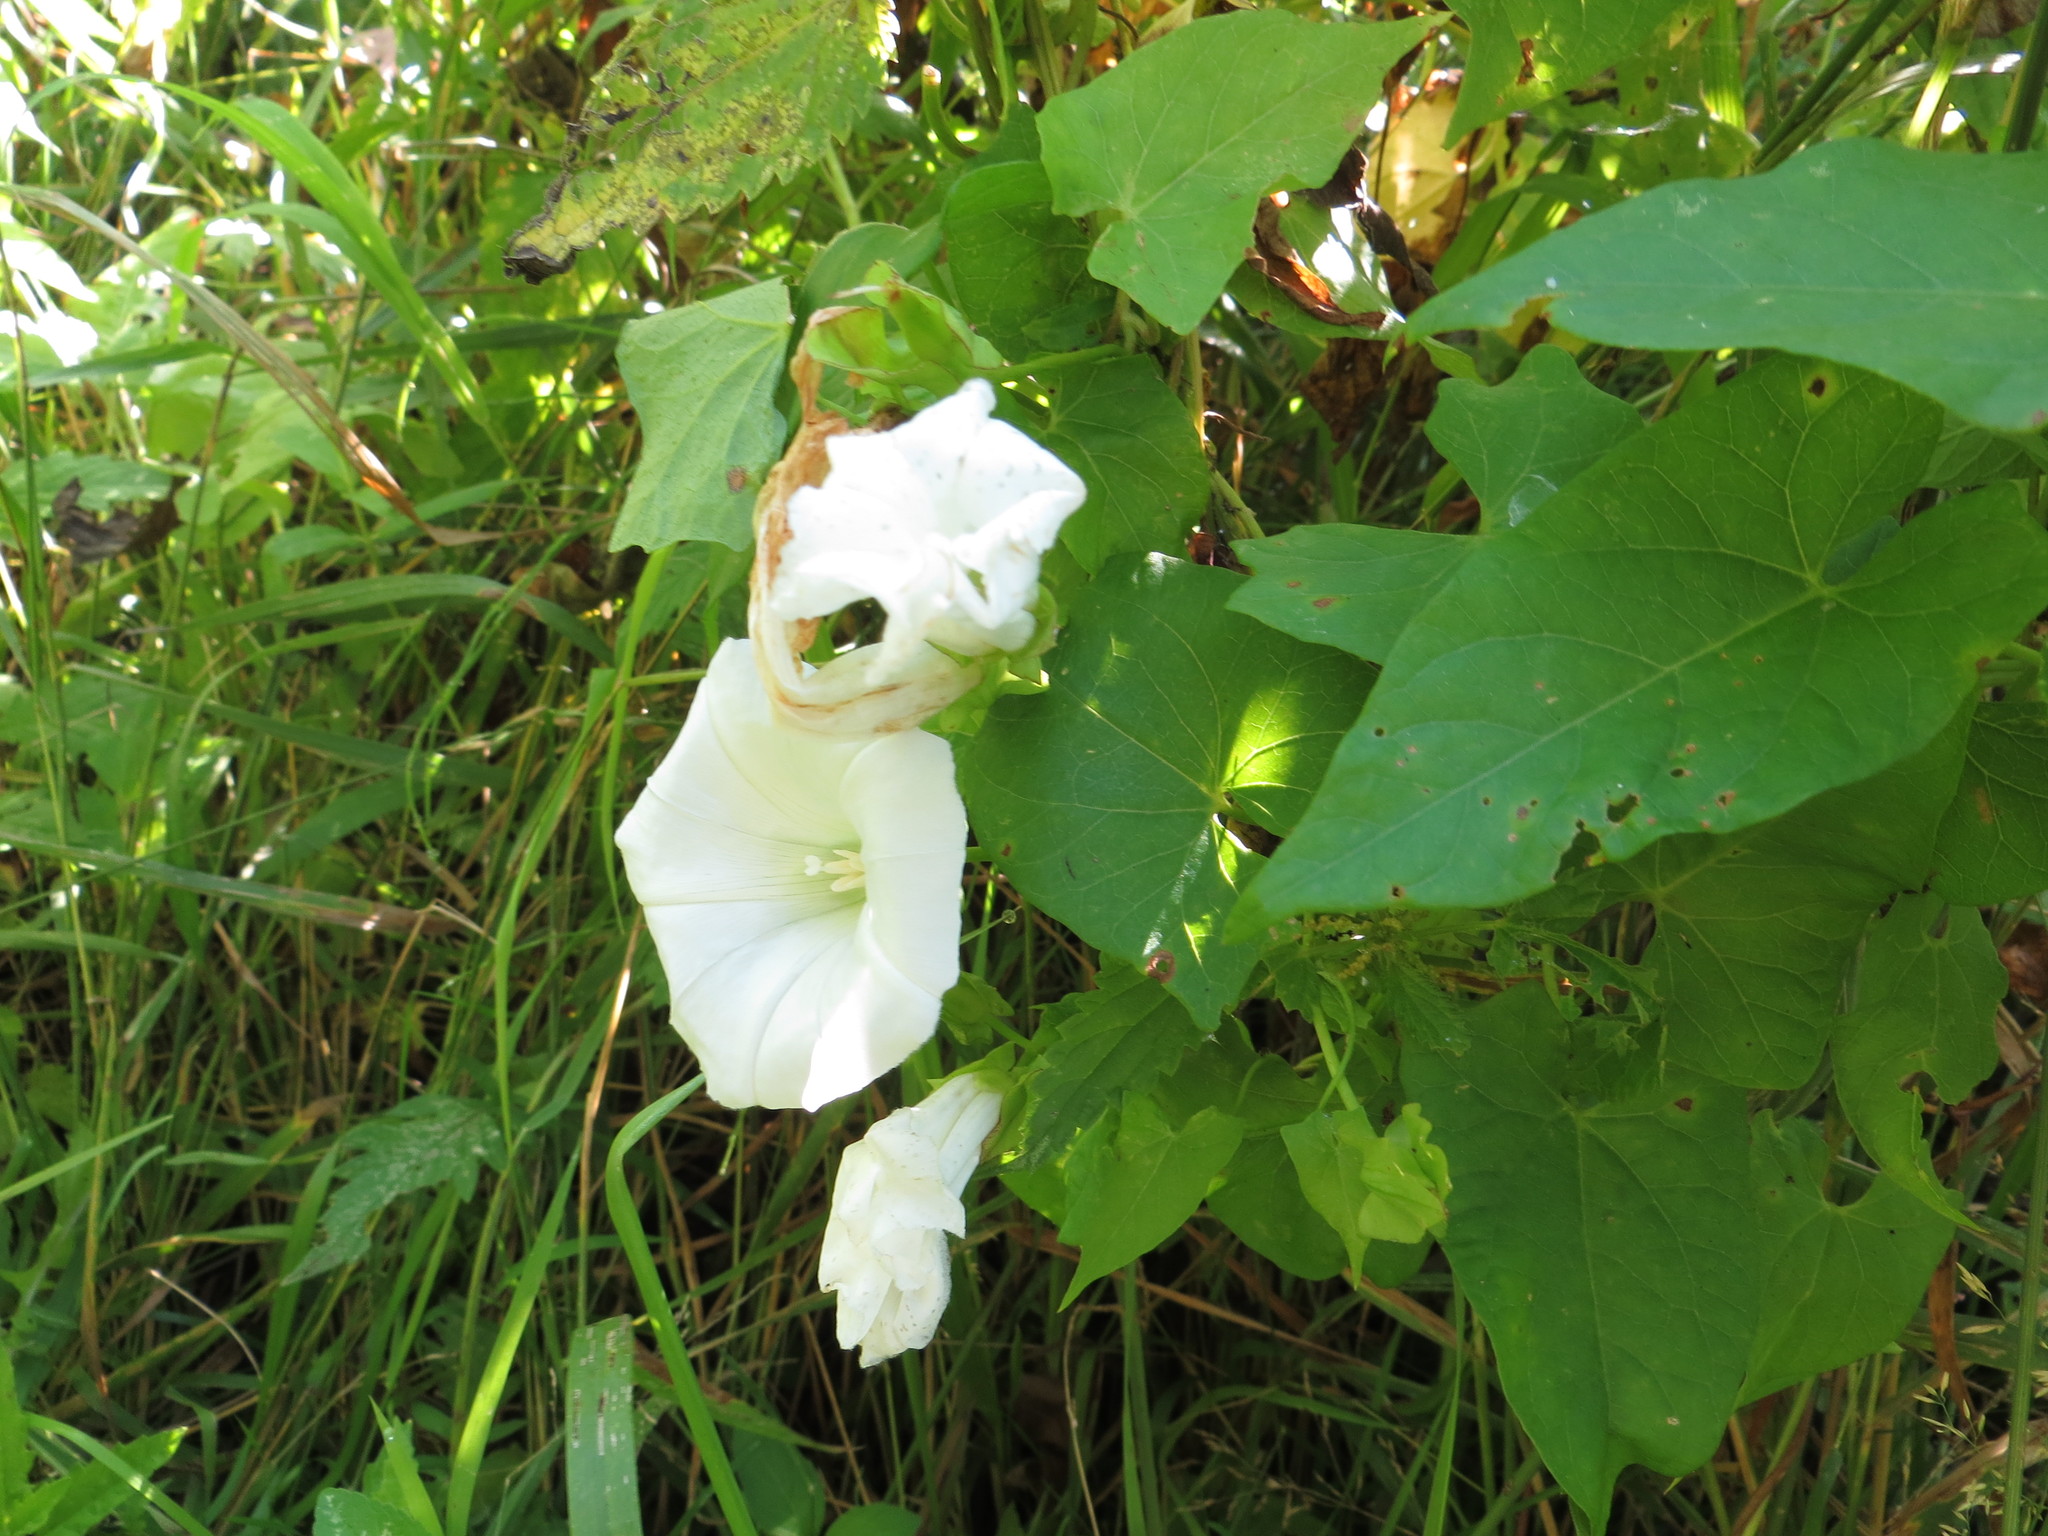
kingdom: Plantae
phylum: Tracheophyta
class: Magnoliopsida
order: Solanales
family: Convolvulaceae
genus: Calystegia
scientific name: Calystegia sepium
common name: Hedge bindweed
